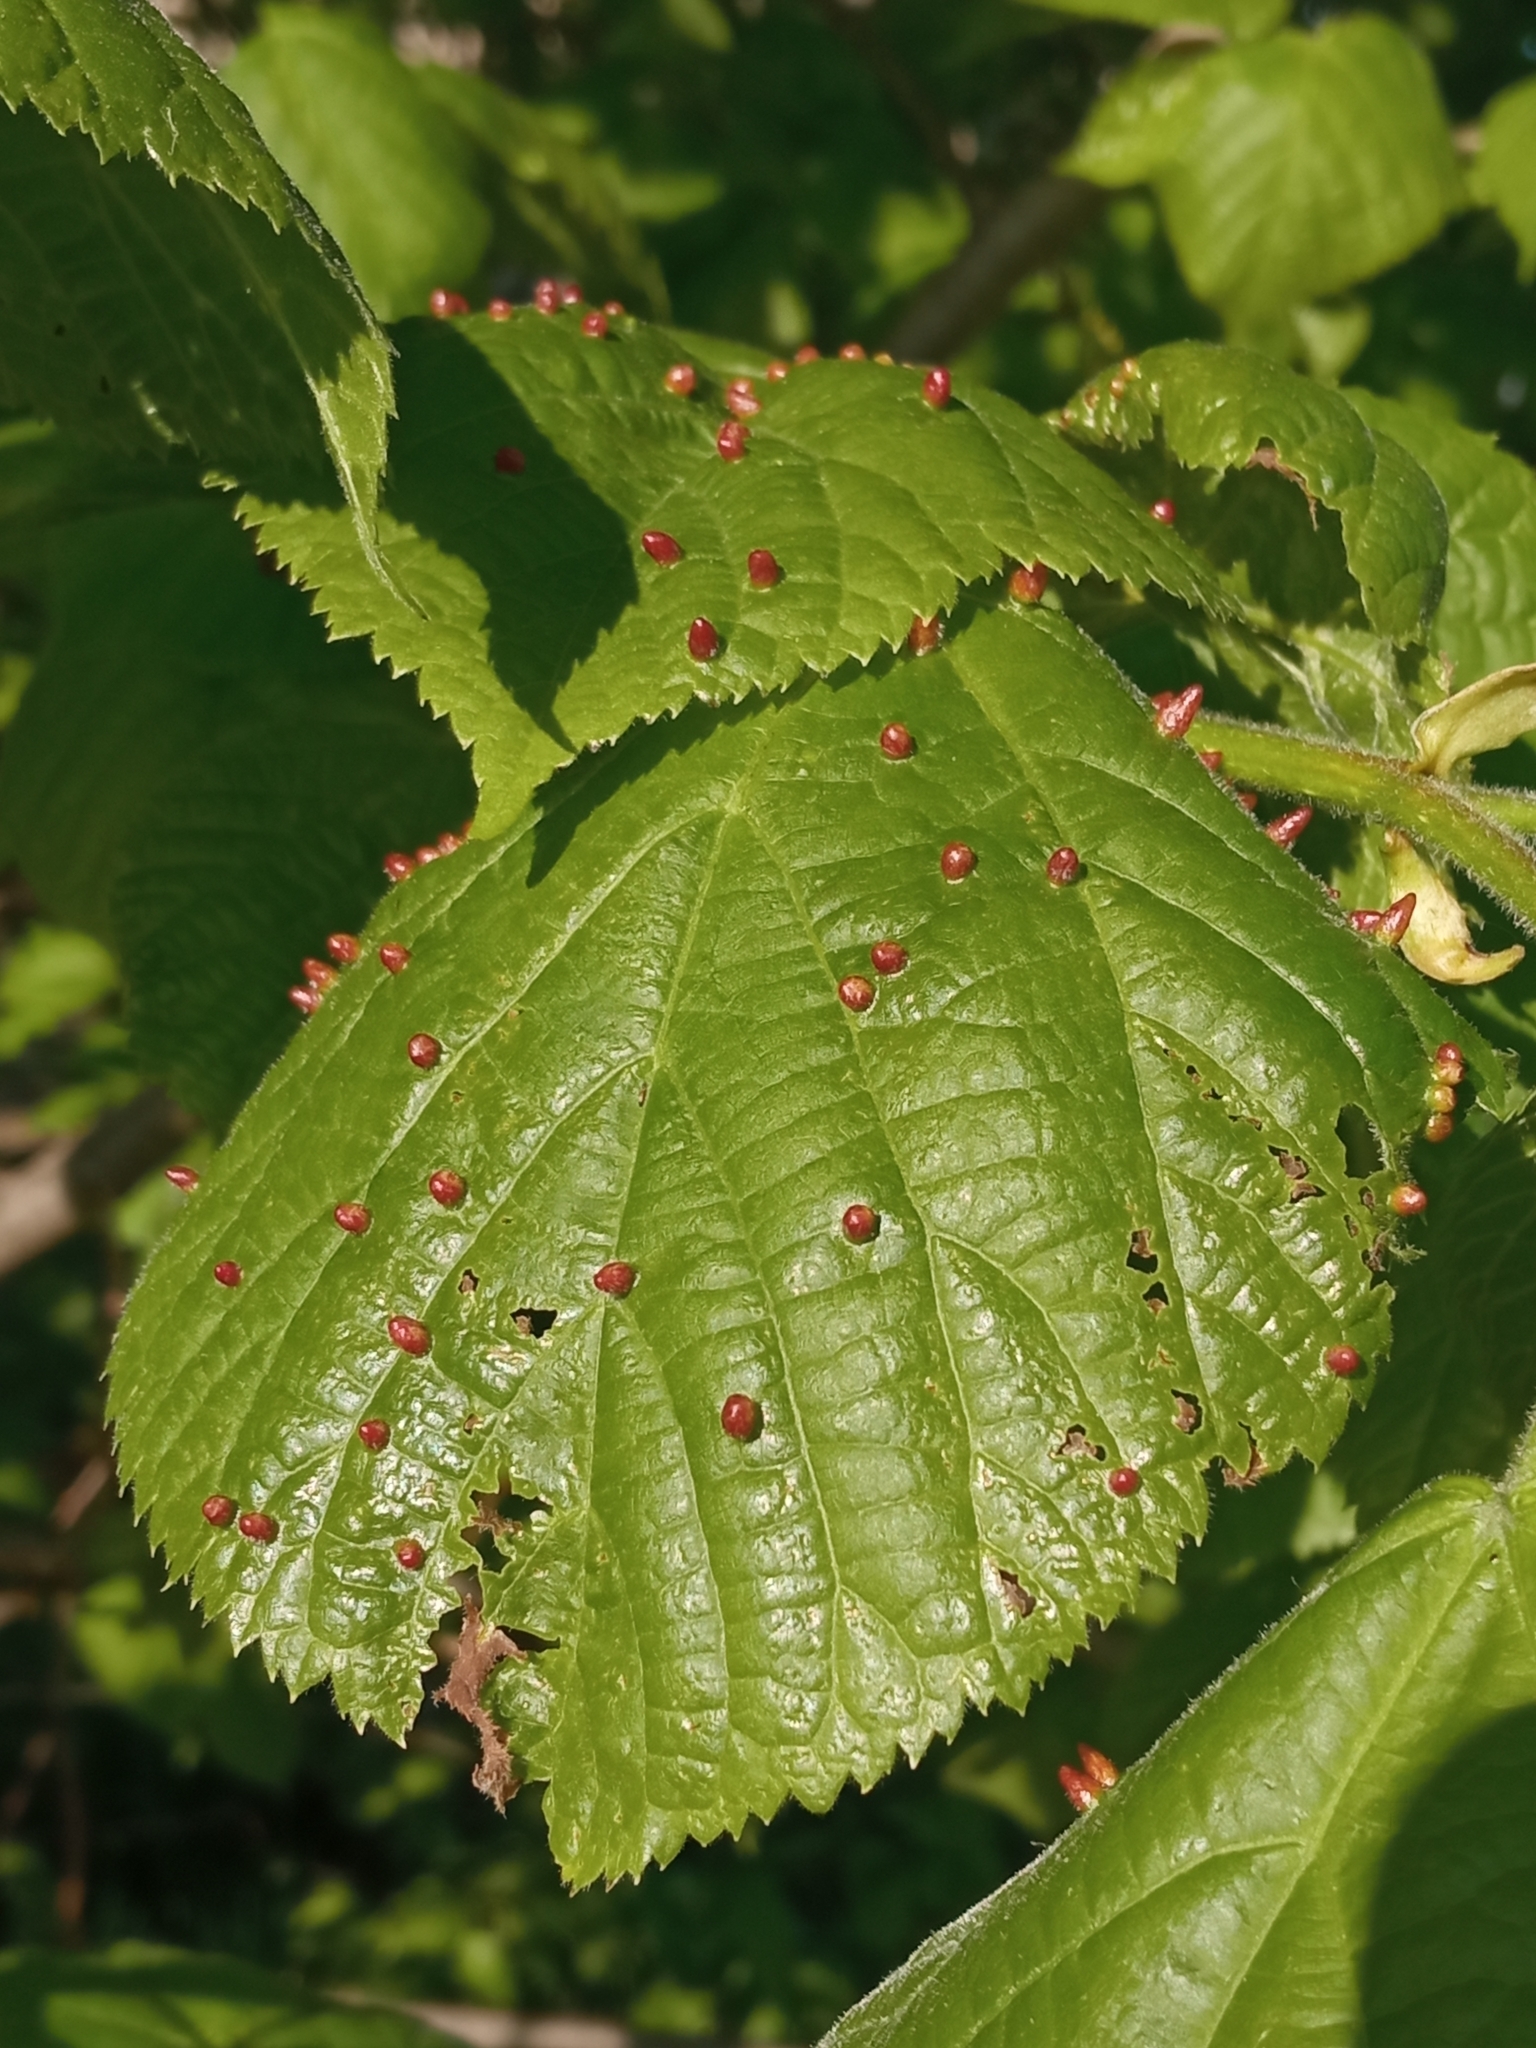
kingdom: Animalia
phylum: Arthropoda
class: Arachnida
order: Trombidiformes
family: Eriophyidae
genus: Eriophyes
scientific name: Eriophyes tiliae
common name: Red nail gall mite
